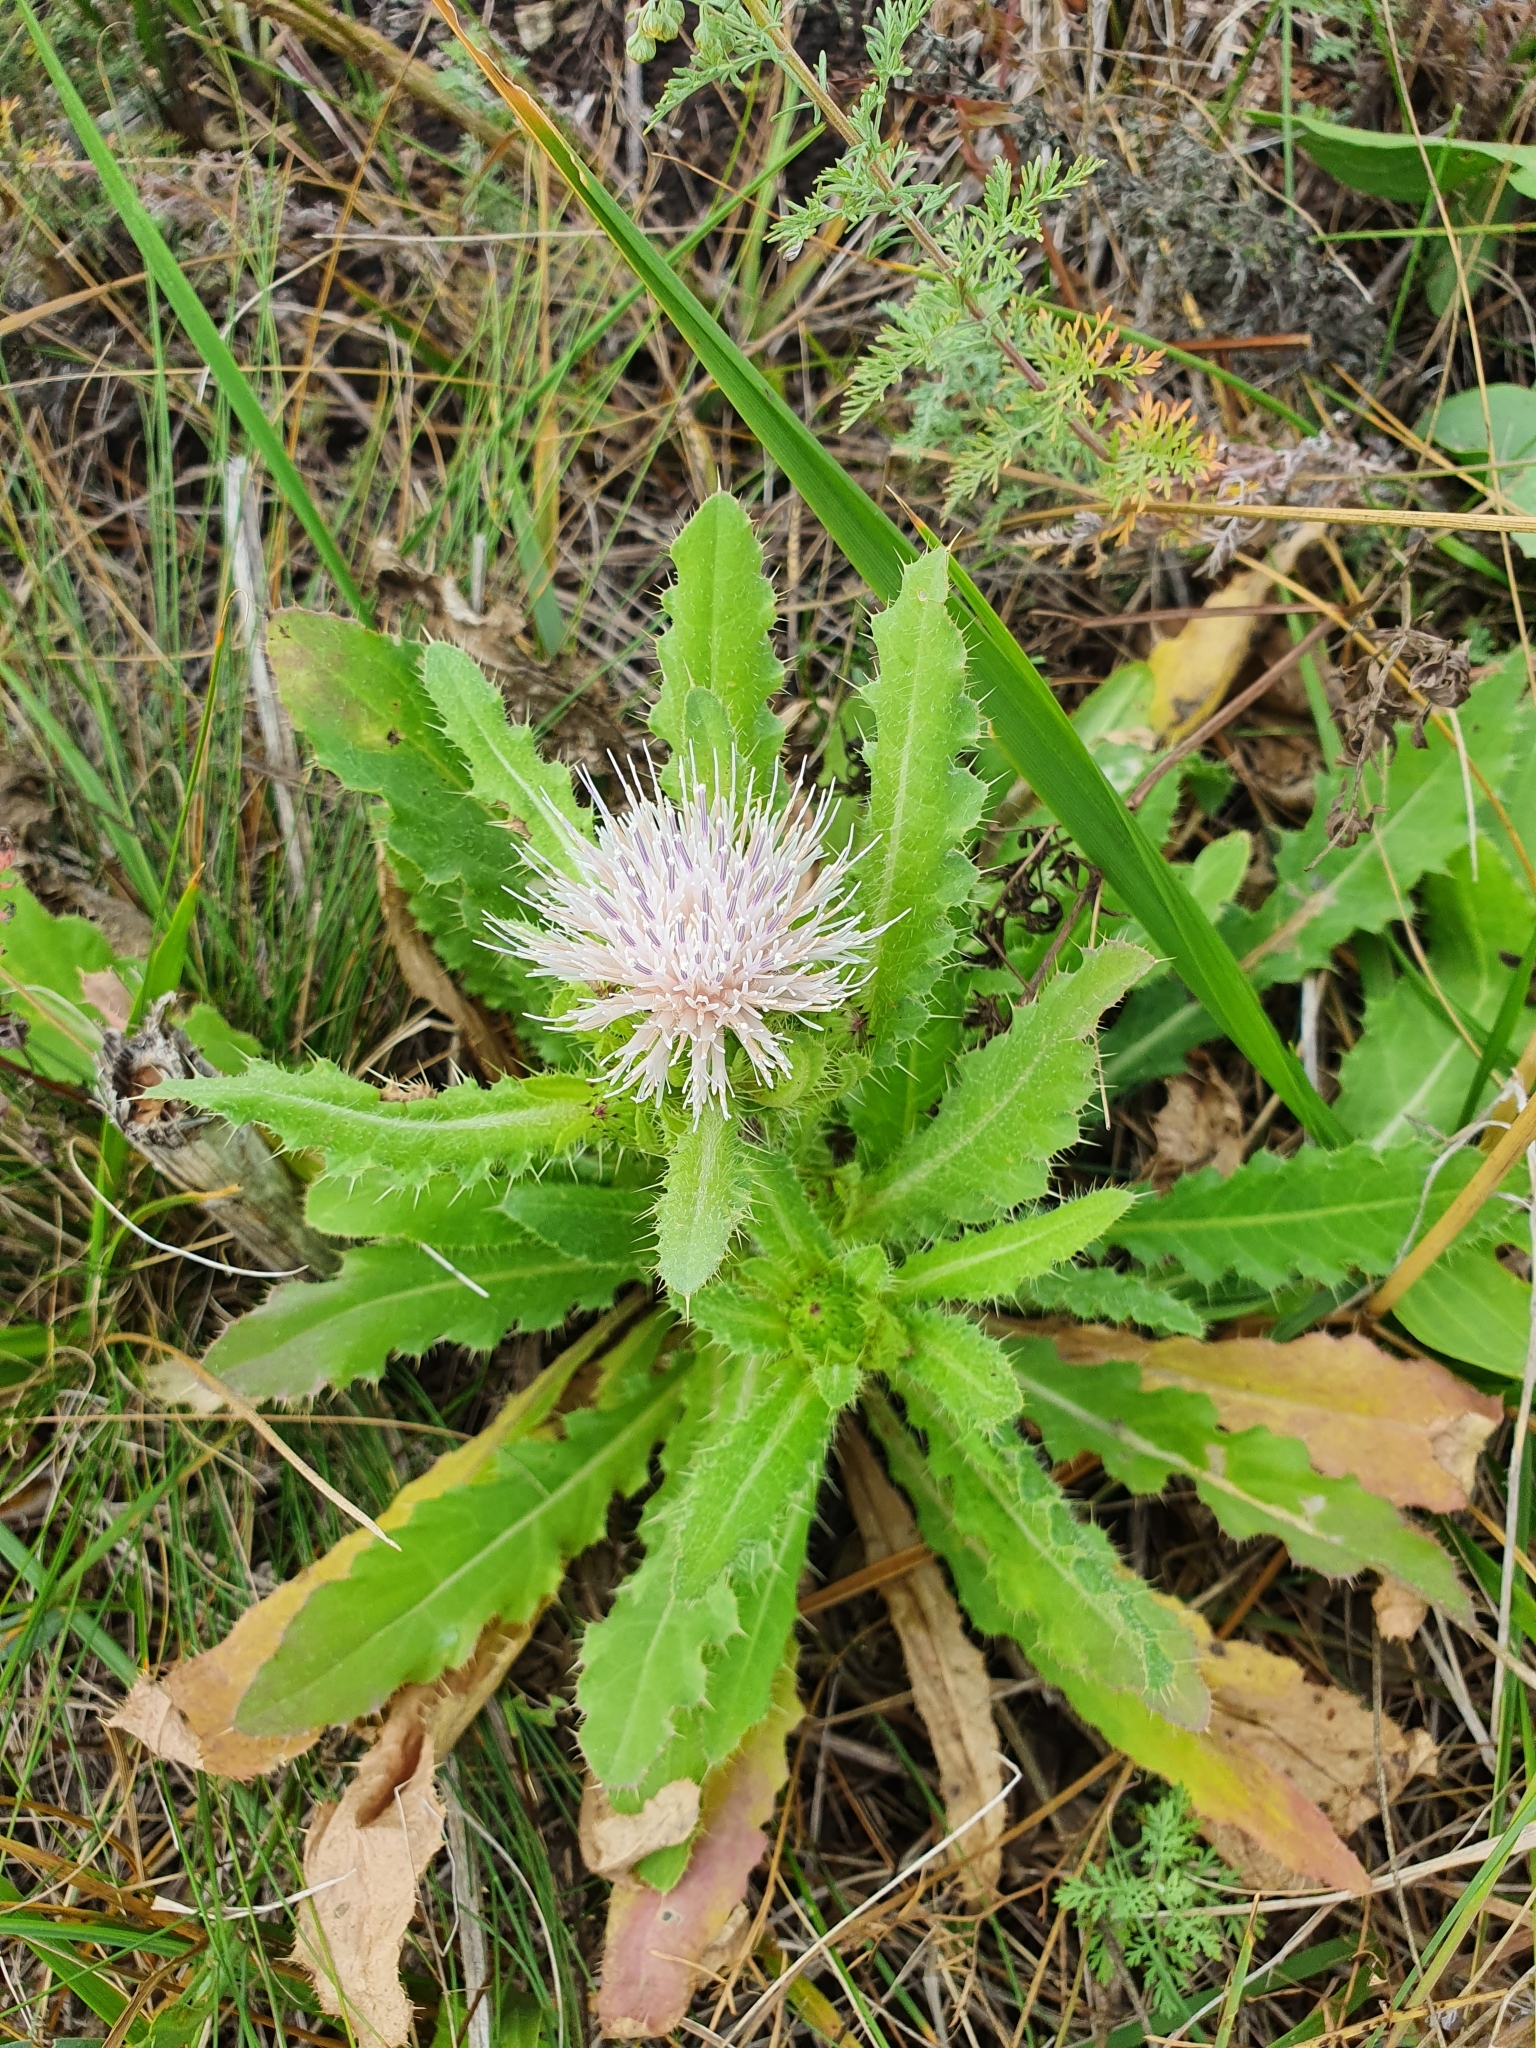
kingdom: Plantae
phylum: Tracheophyta
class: Magnoliopsida
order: Asterales
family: Asteraceae
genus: Cirsium
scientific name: Cirsium esculentum
